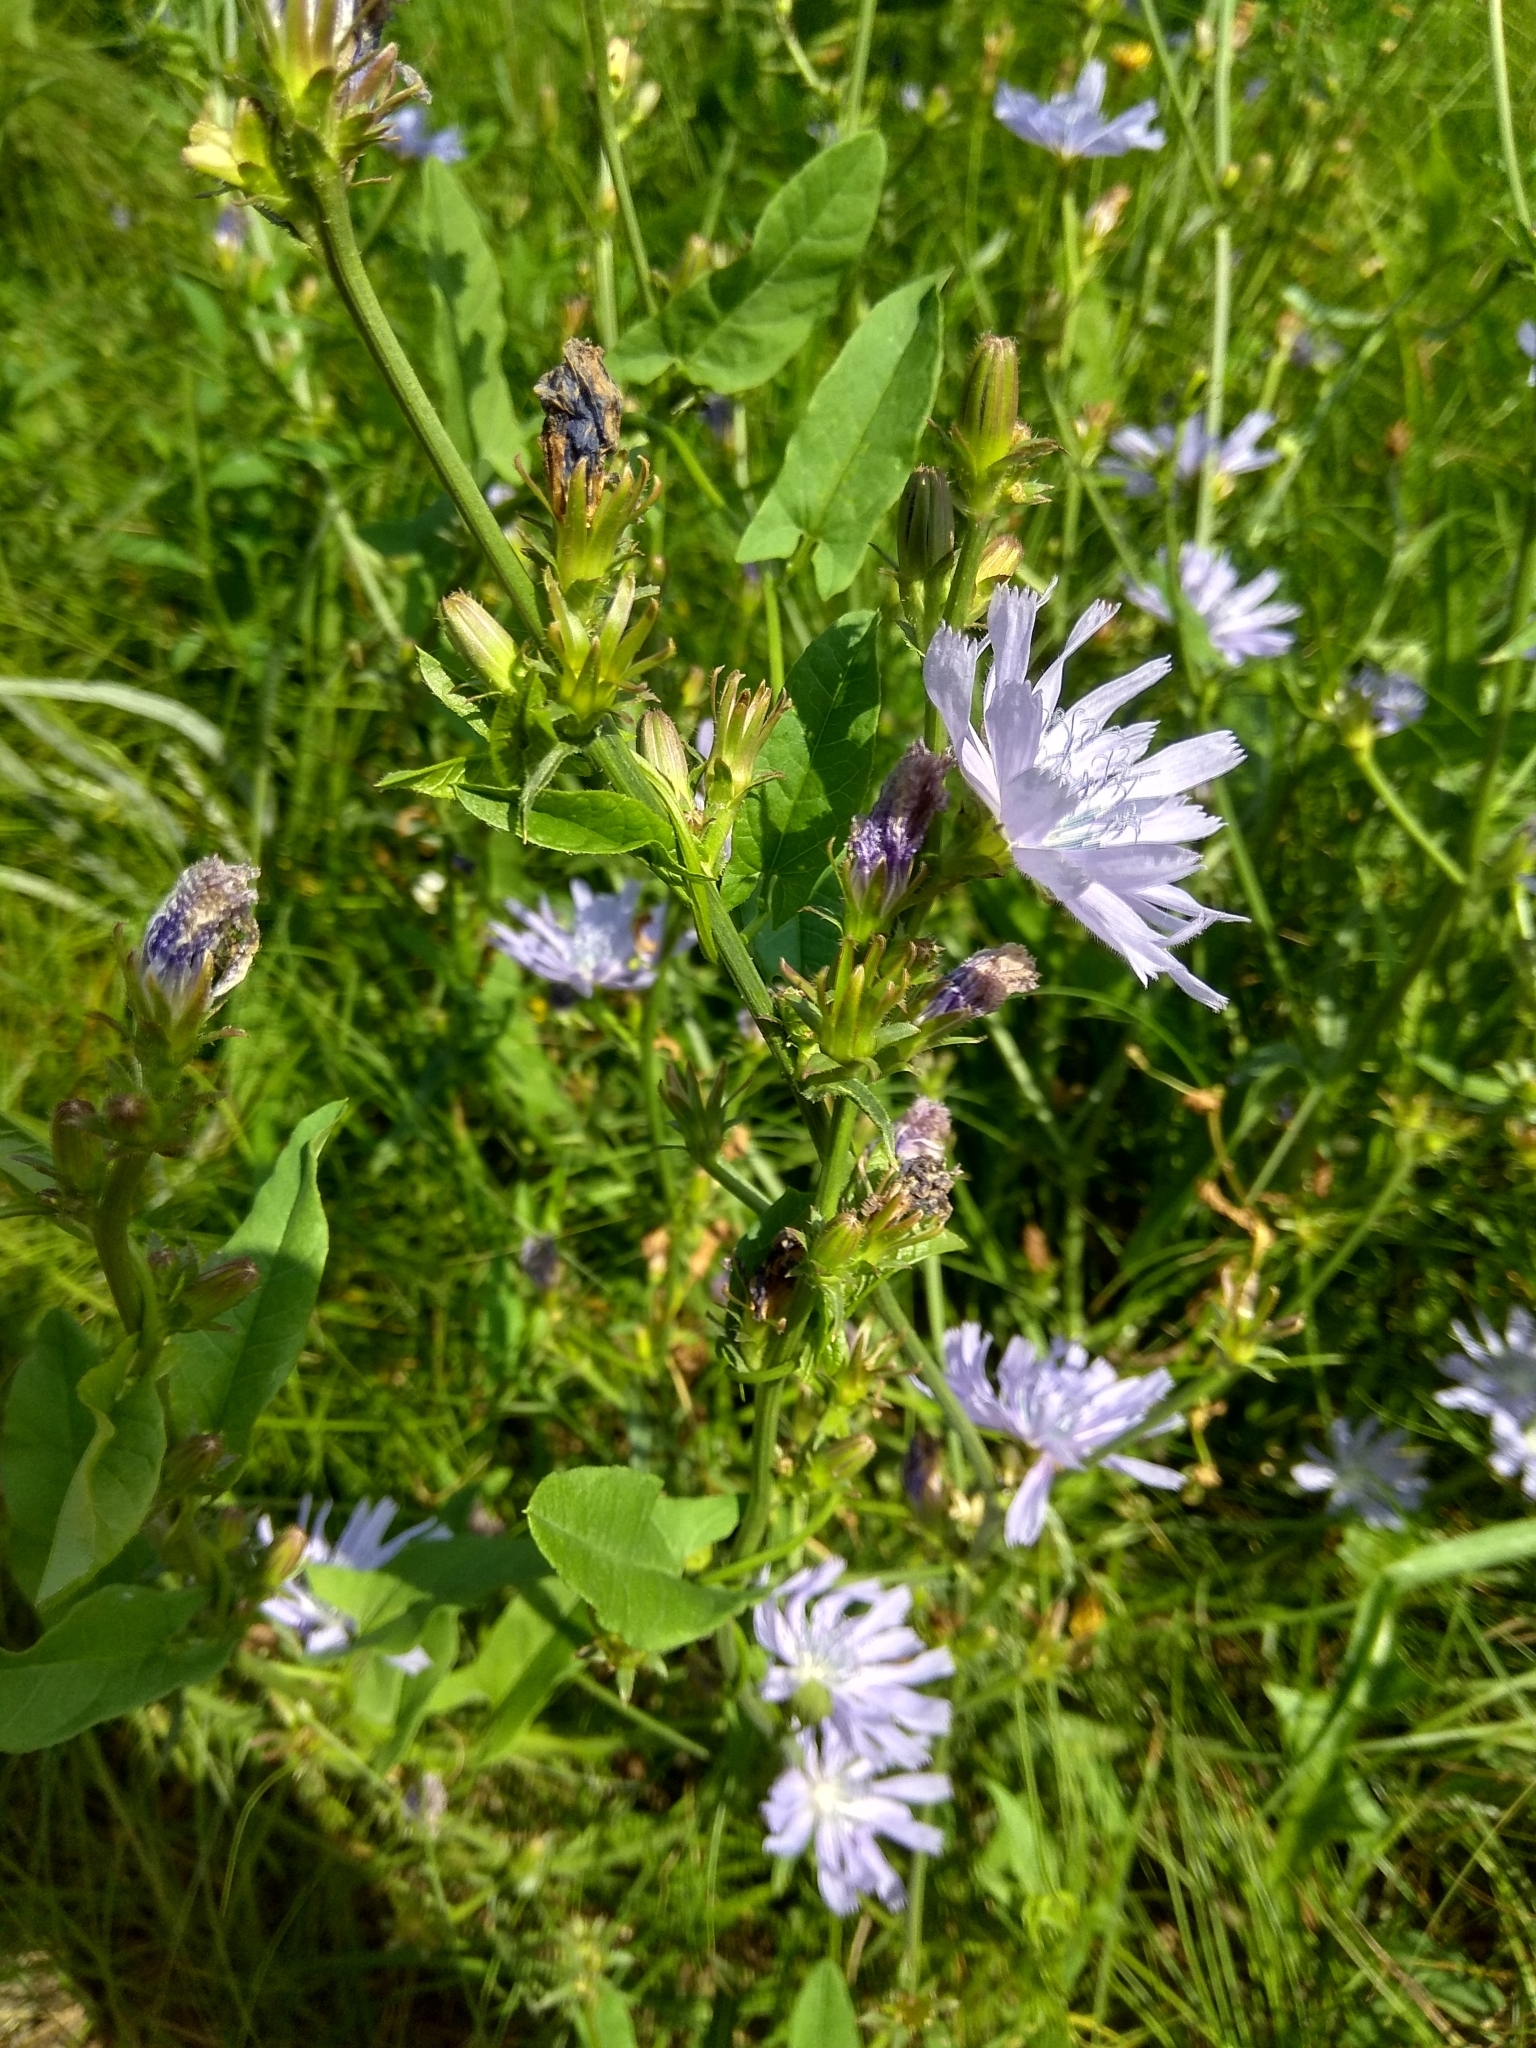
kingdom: Plantae
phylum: Tracheophyta
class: Magnoliopsida
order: Asterales
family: Asteraceae
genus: Cichorium
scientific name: Cichorium intybus
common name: Chicory
